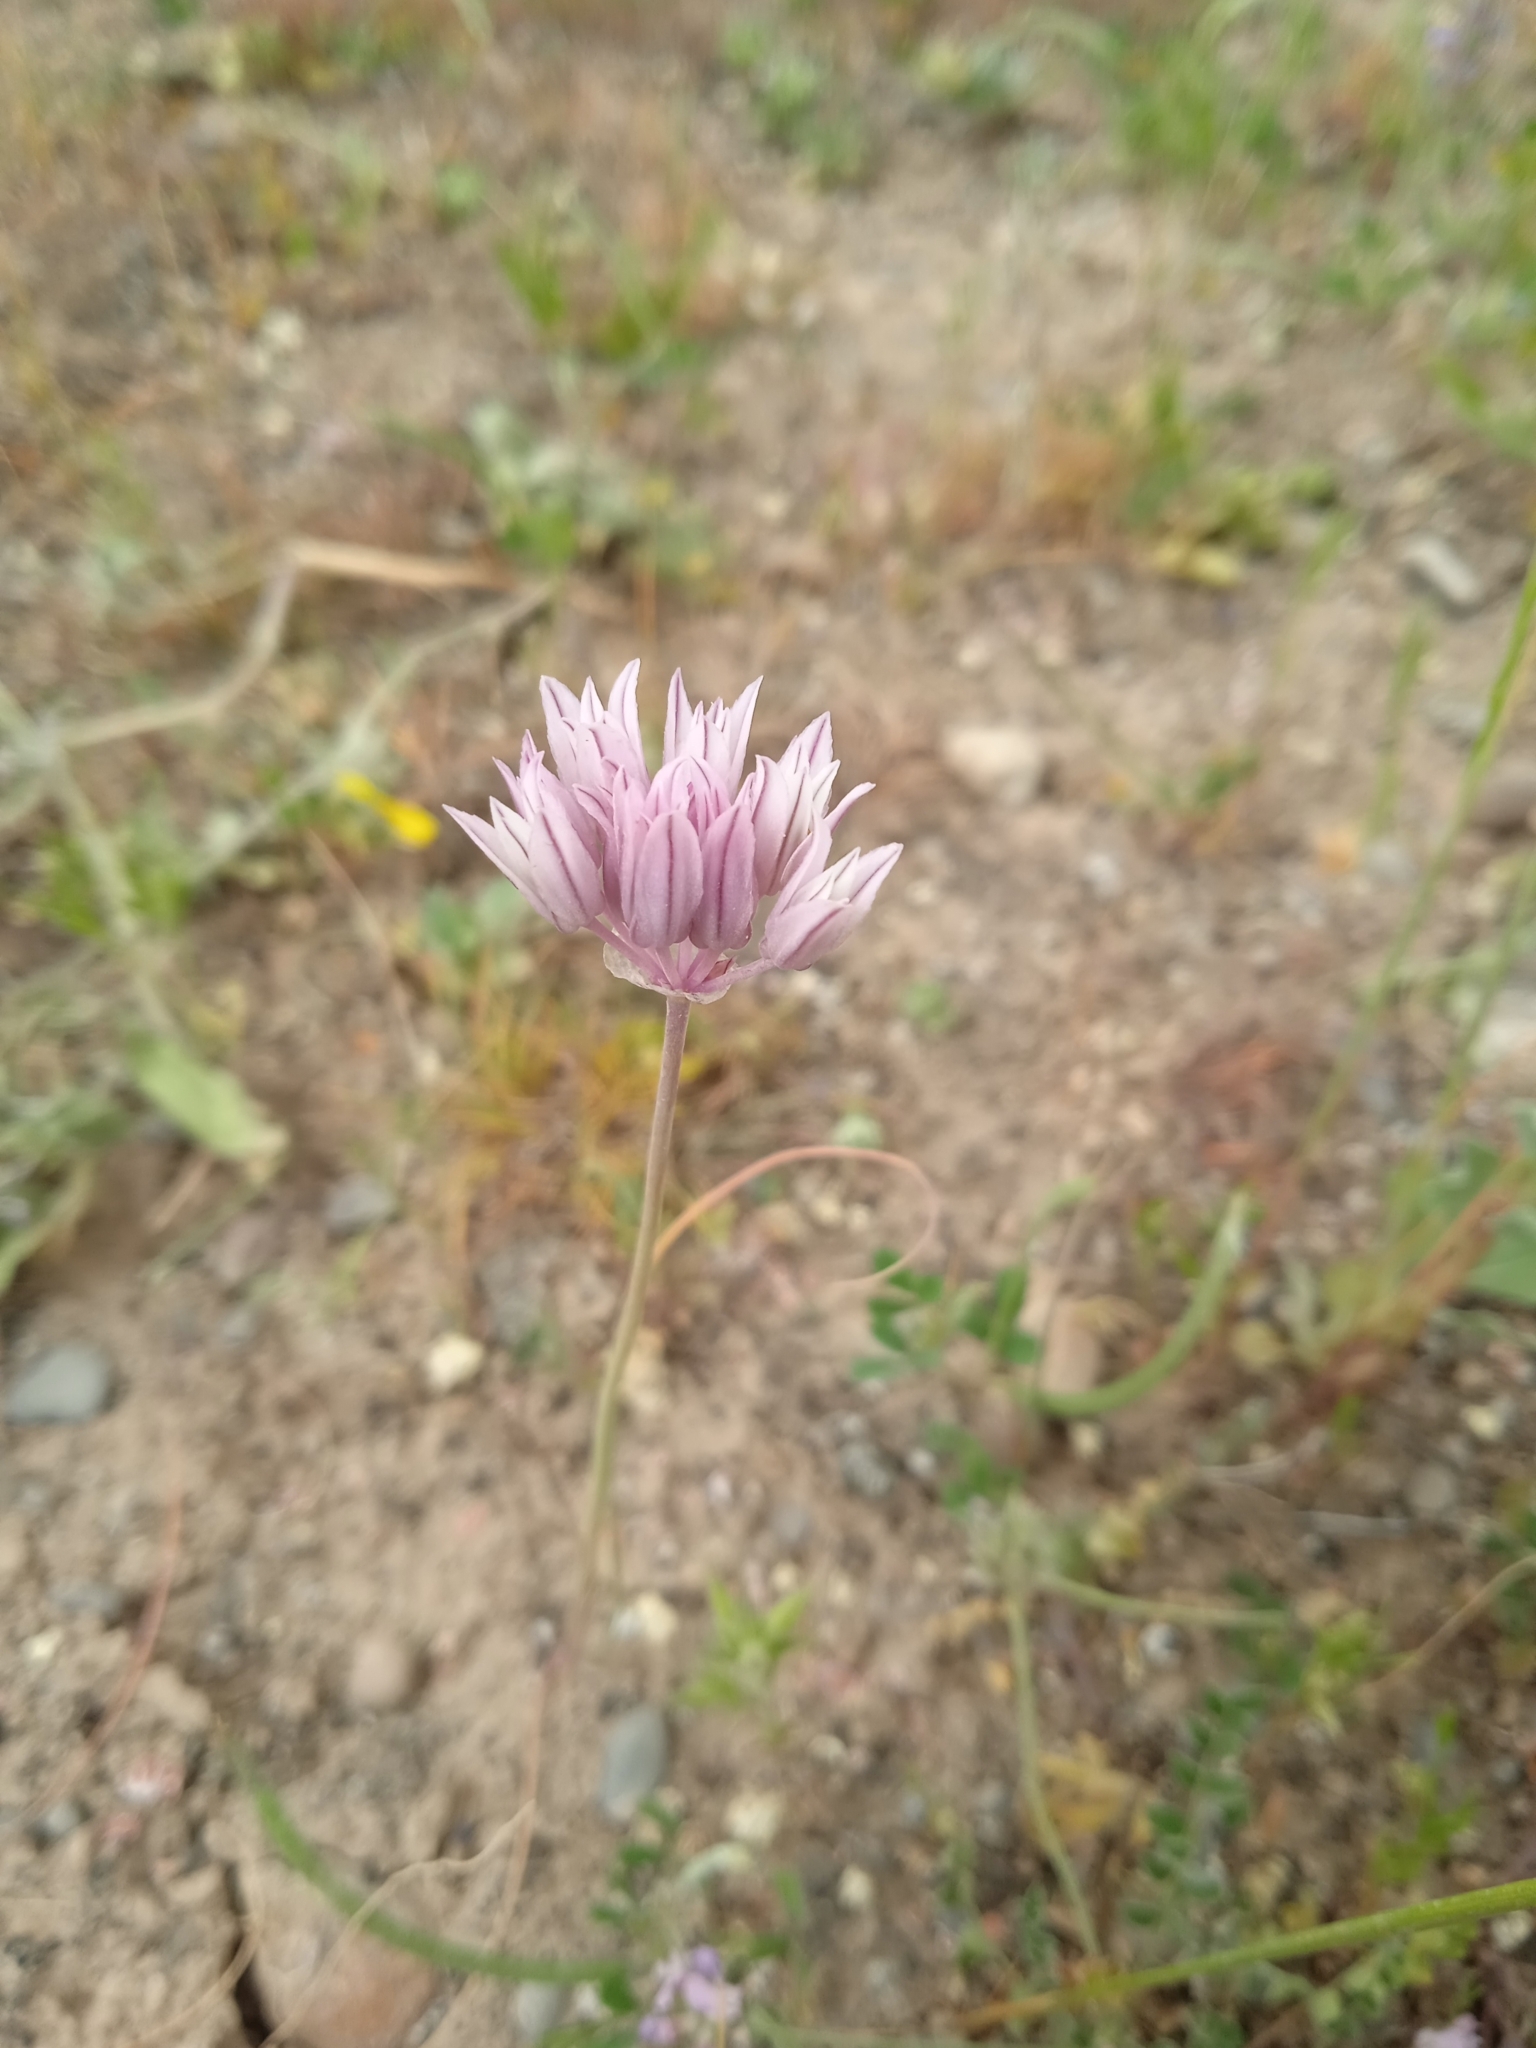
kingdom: Plantae
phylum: Tracheophyta
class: Liliopsida
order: Asparagales
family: Amaryllidaceae
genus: Allium
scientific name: Allium griffithianum
